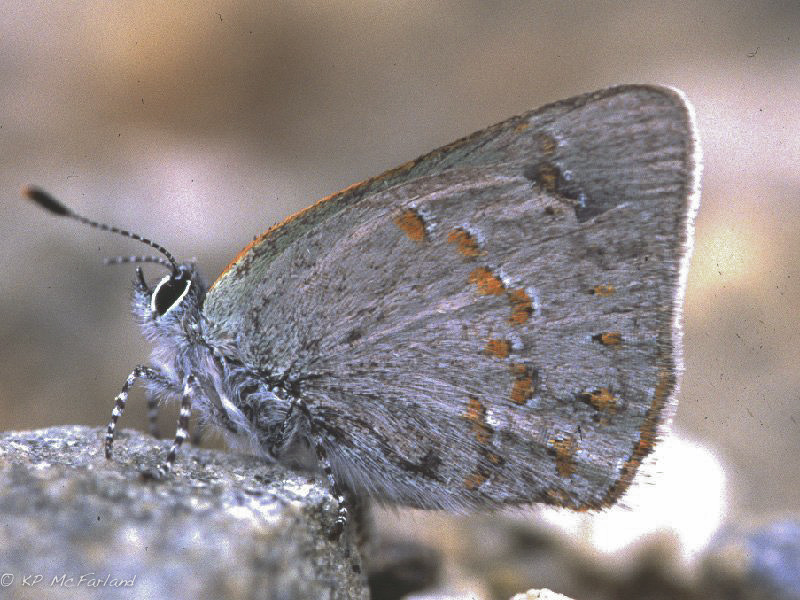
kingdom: Animalia
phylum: Arthropoda
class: Insecta
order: Lepidoptera
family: Lycaenidae
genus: Erora
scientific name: Erora laeta
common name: Early hairstreak
